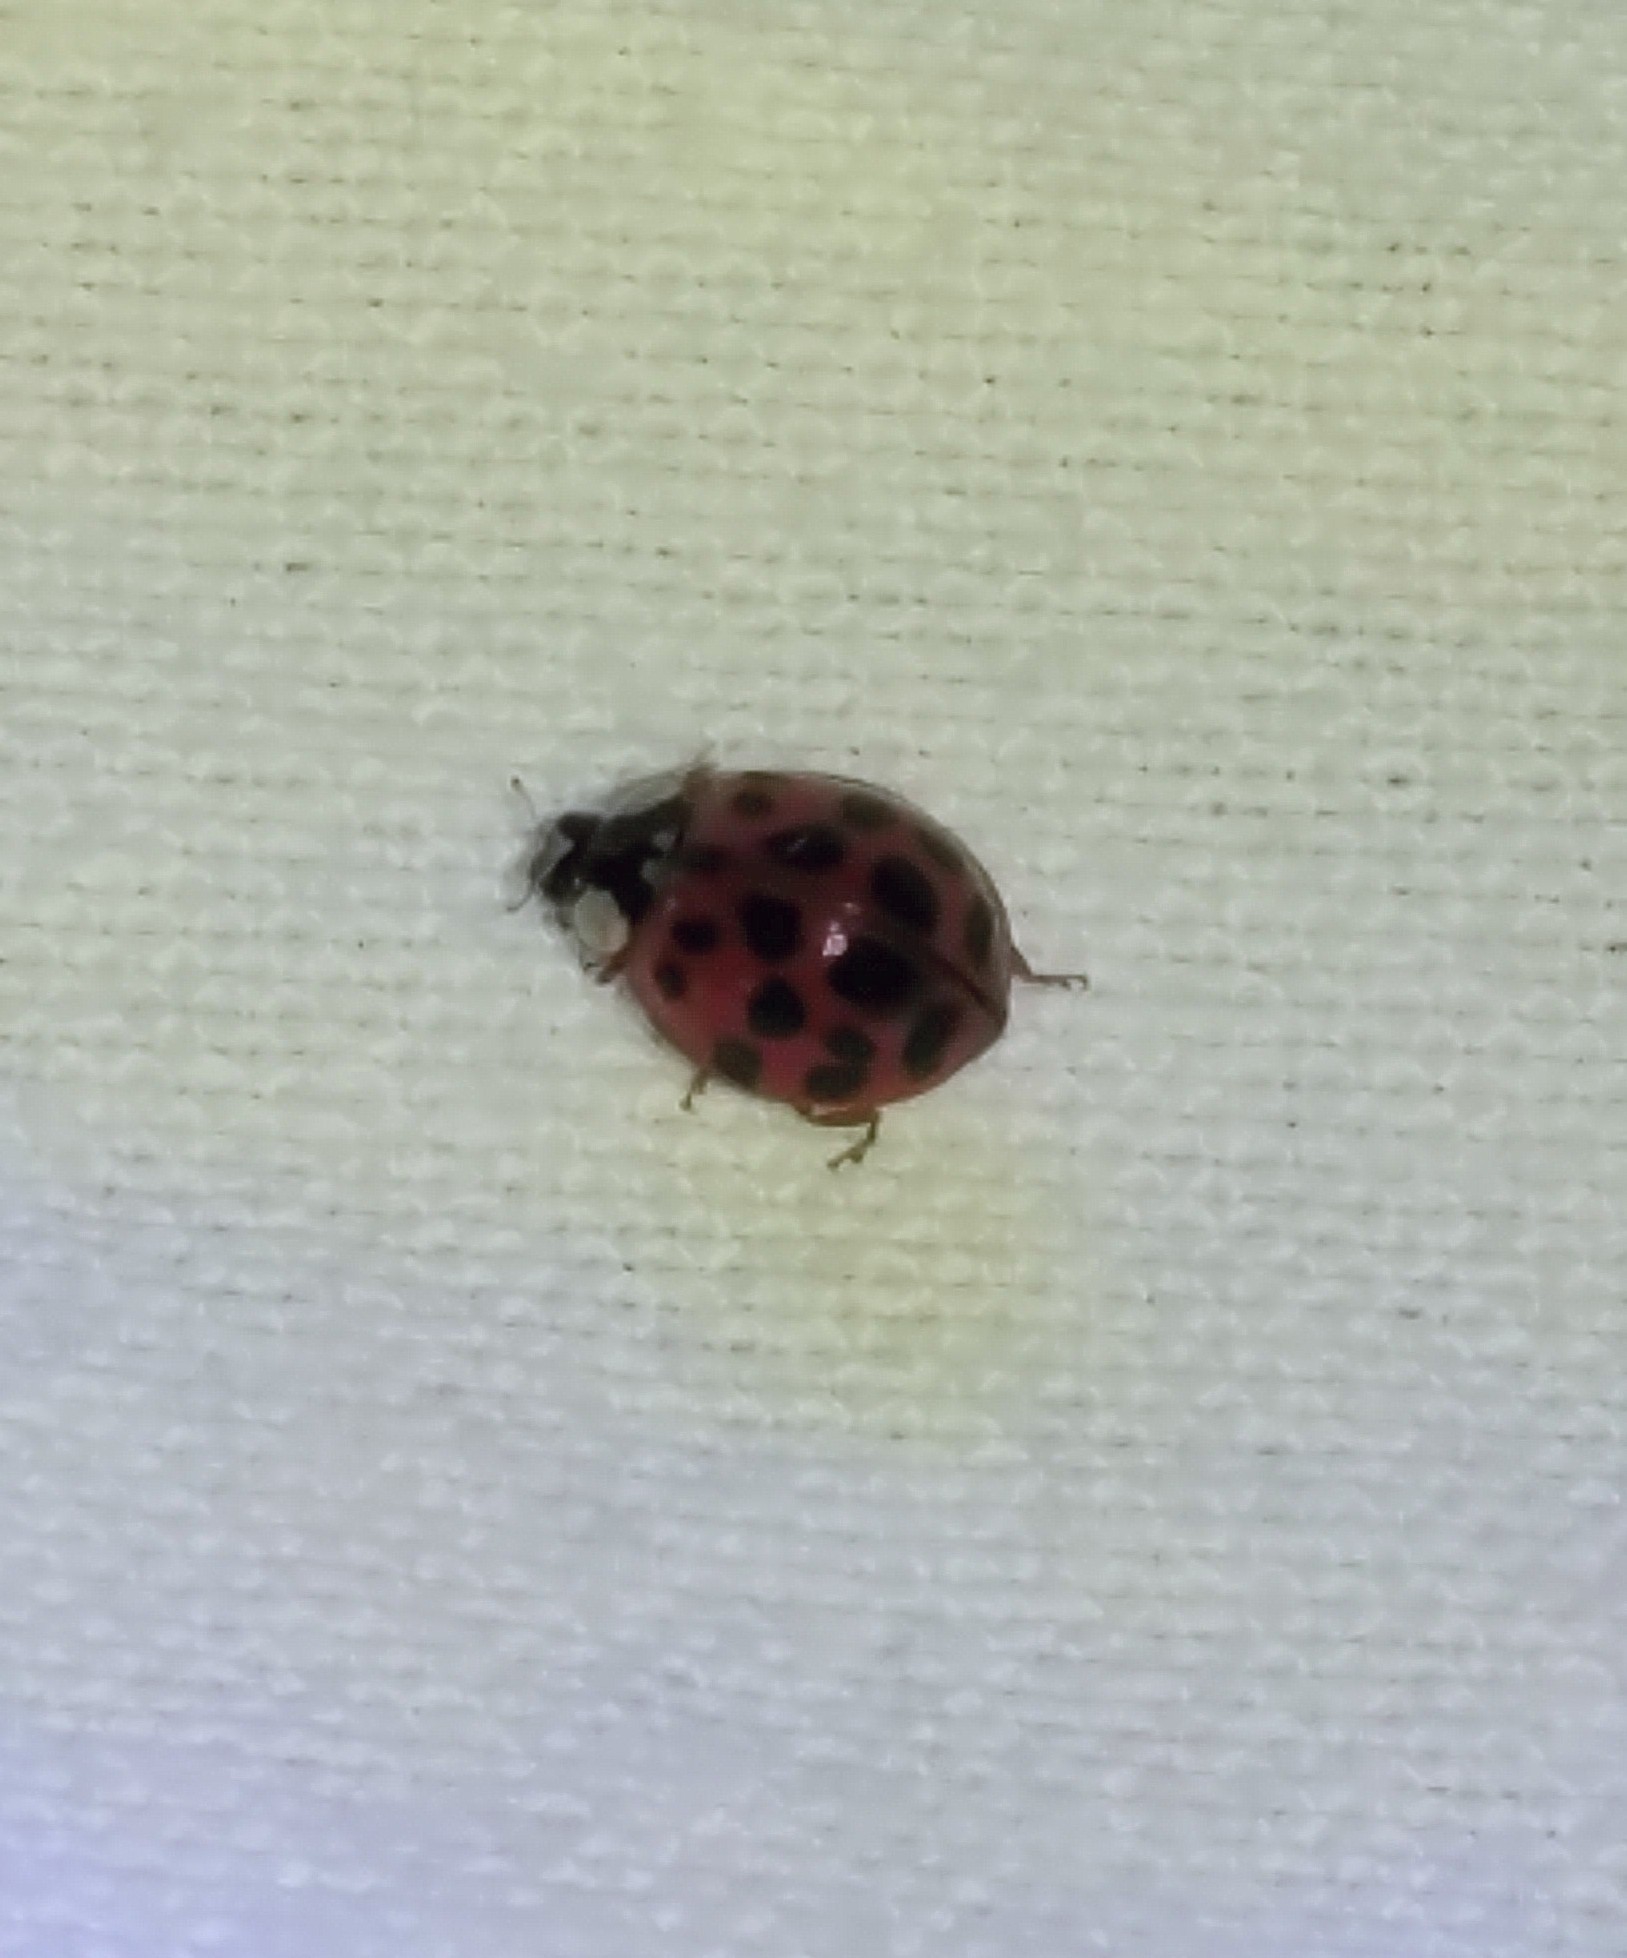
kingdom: Animalia
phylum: Arthropoda
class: Insecta
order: Coleoptera
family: Coccinellidae
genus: Harmonia
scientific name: Harmonia axyridis
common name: Harlequin ladybird
